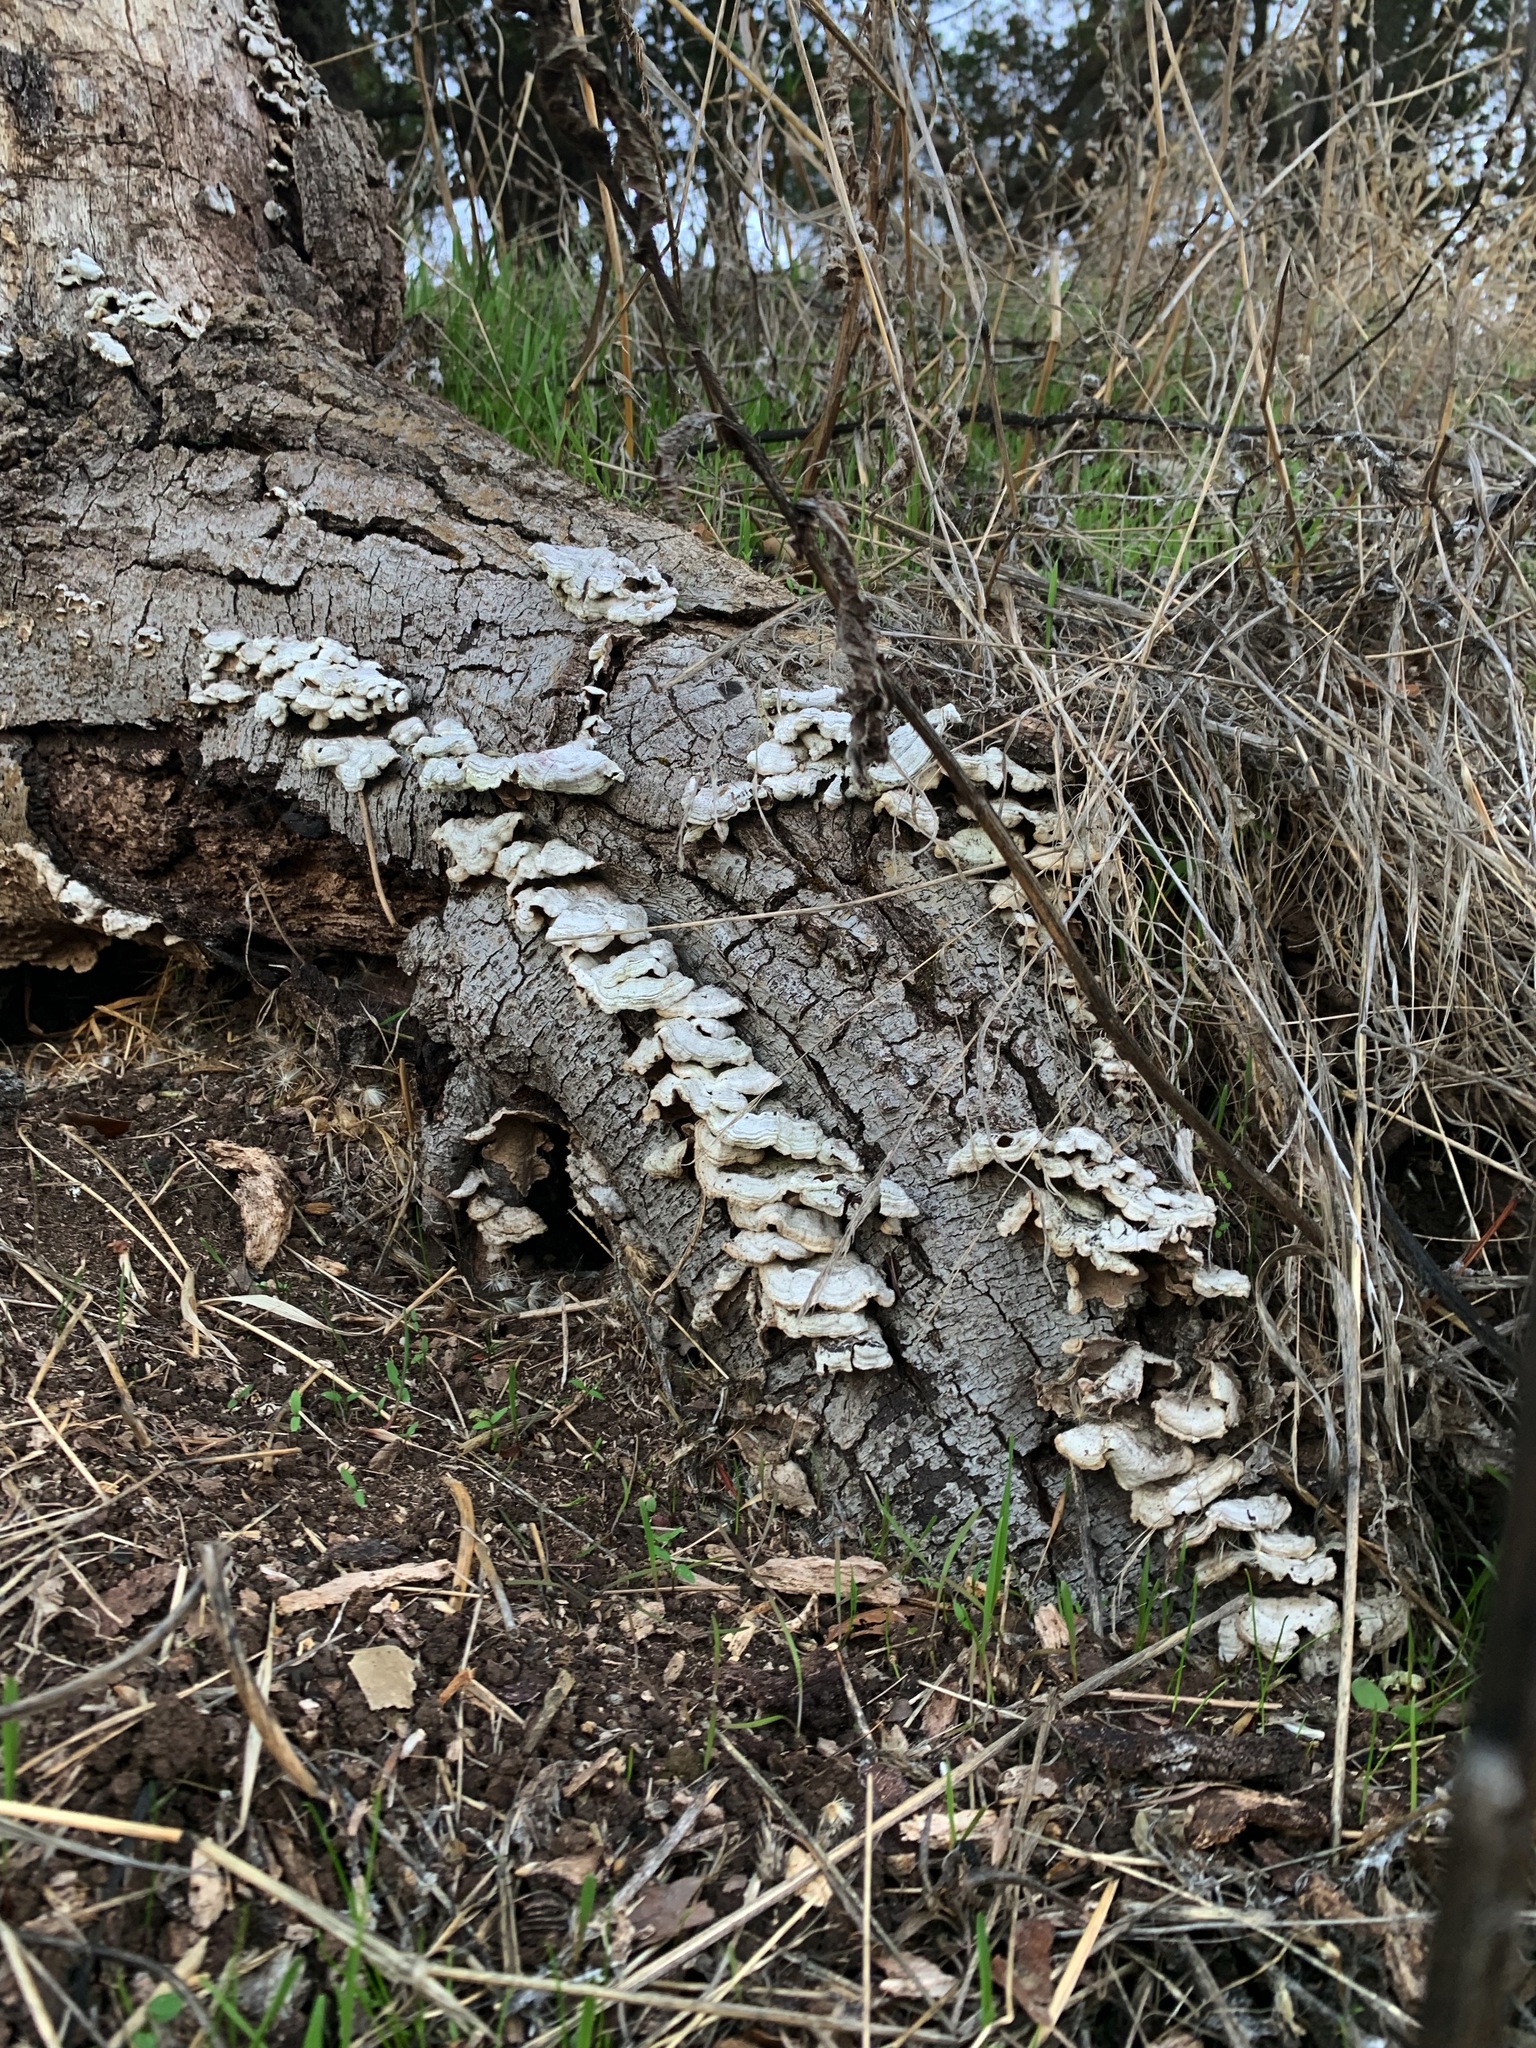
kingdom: Fungi
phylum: Basidiomycota
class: Agaricomycetes
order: Hymenochaetales
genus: Trichaptum
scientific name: Trichaptum abietinum
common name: Purplepore bracket
